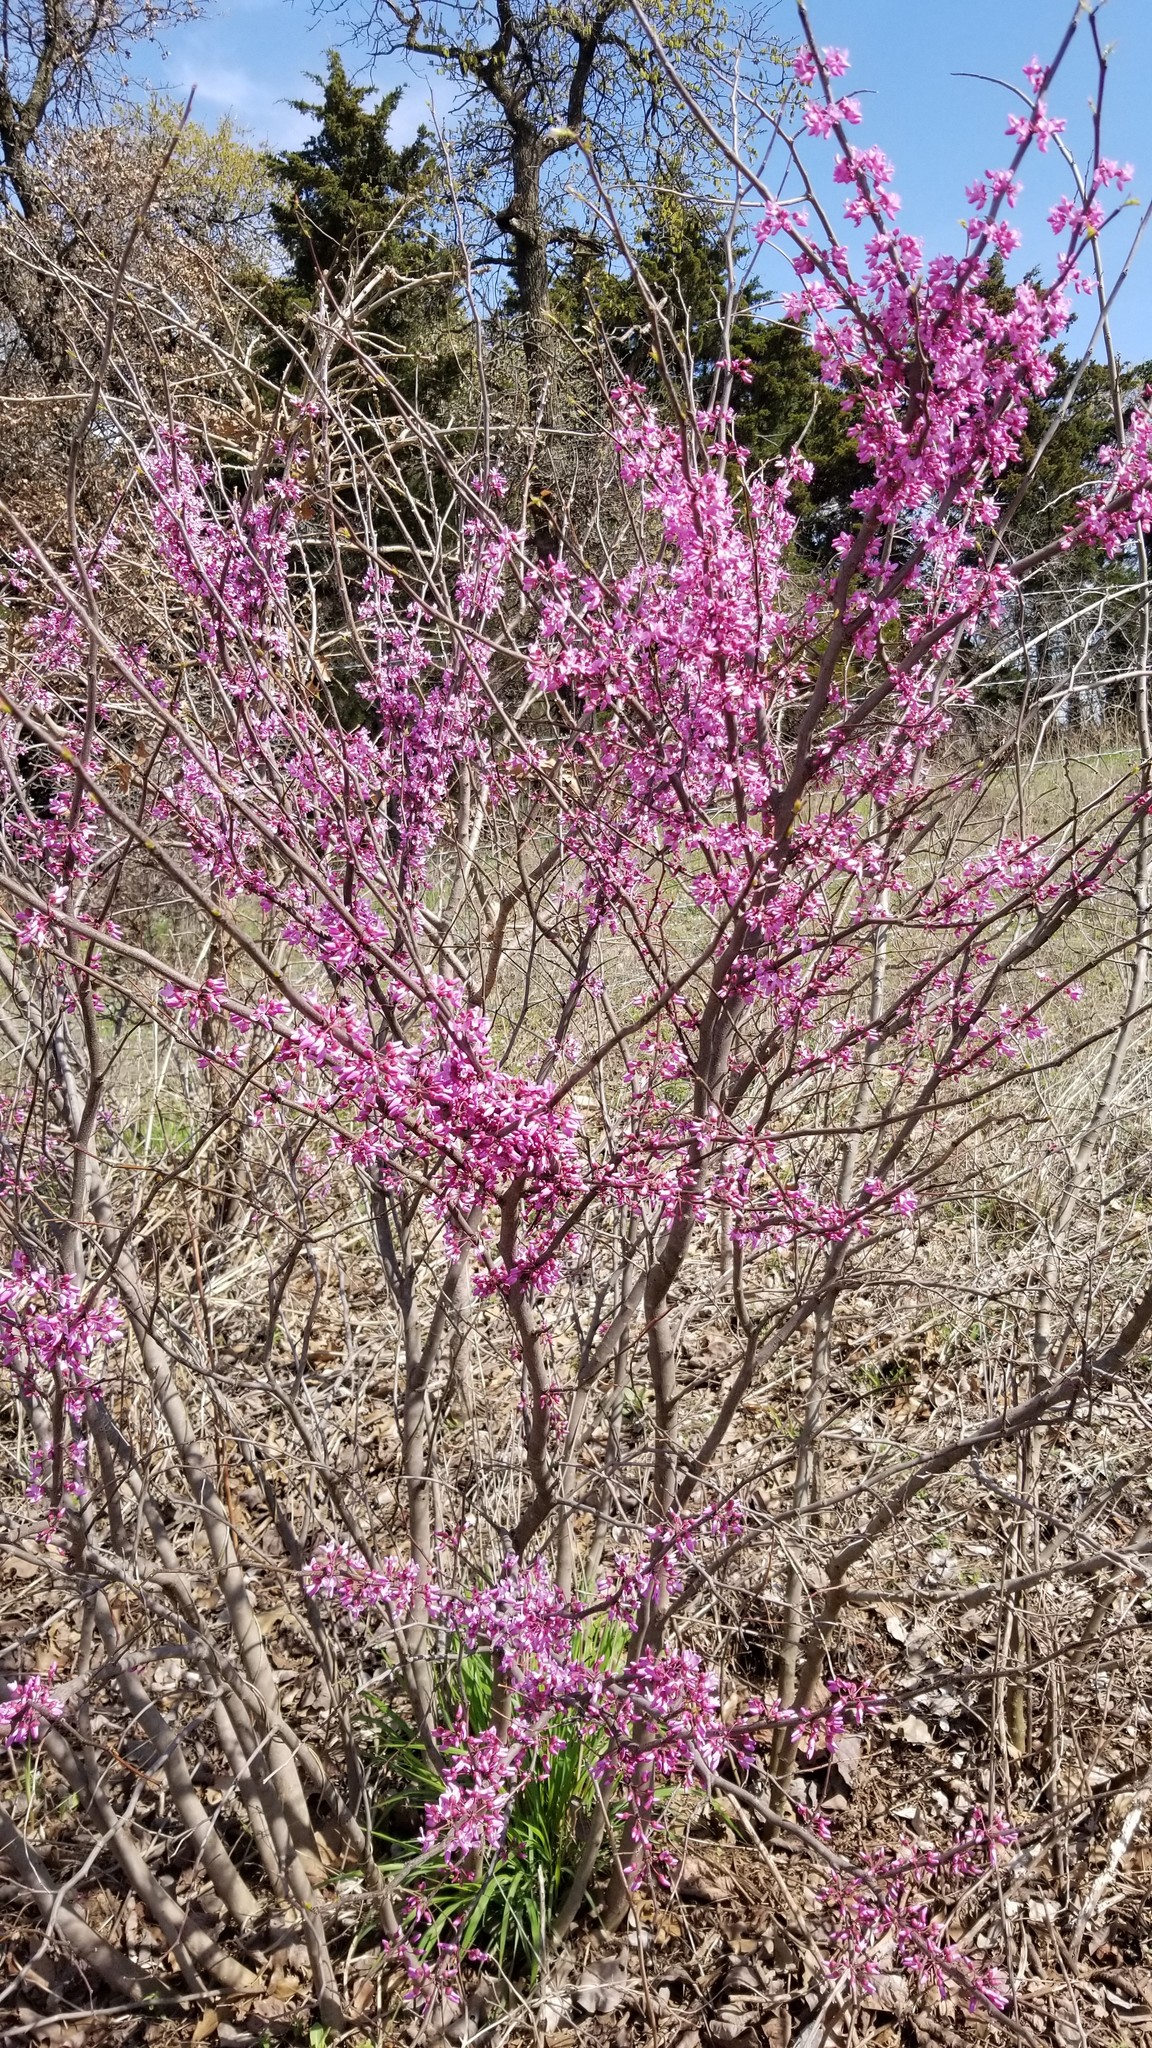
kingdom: Plantae
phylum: Tracheophyta
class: Magnoliopsida
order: Fabales
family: Fabaceae
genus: Cercis
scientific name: Cercis canadensis
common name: Eastern redbud
